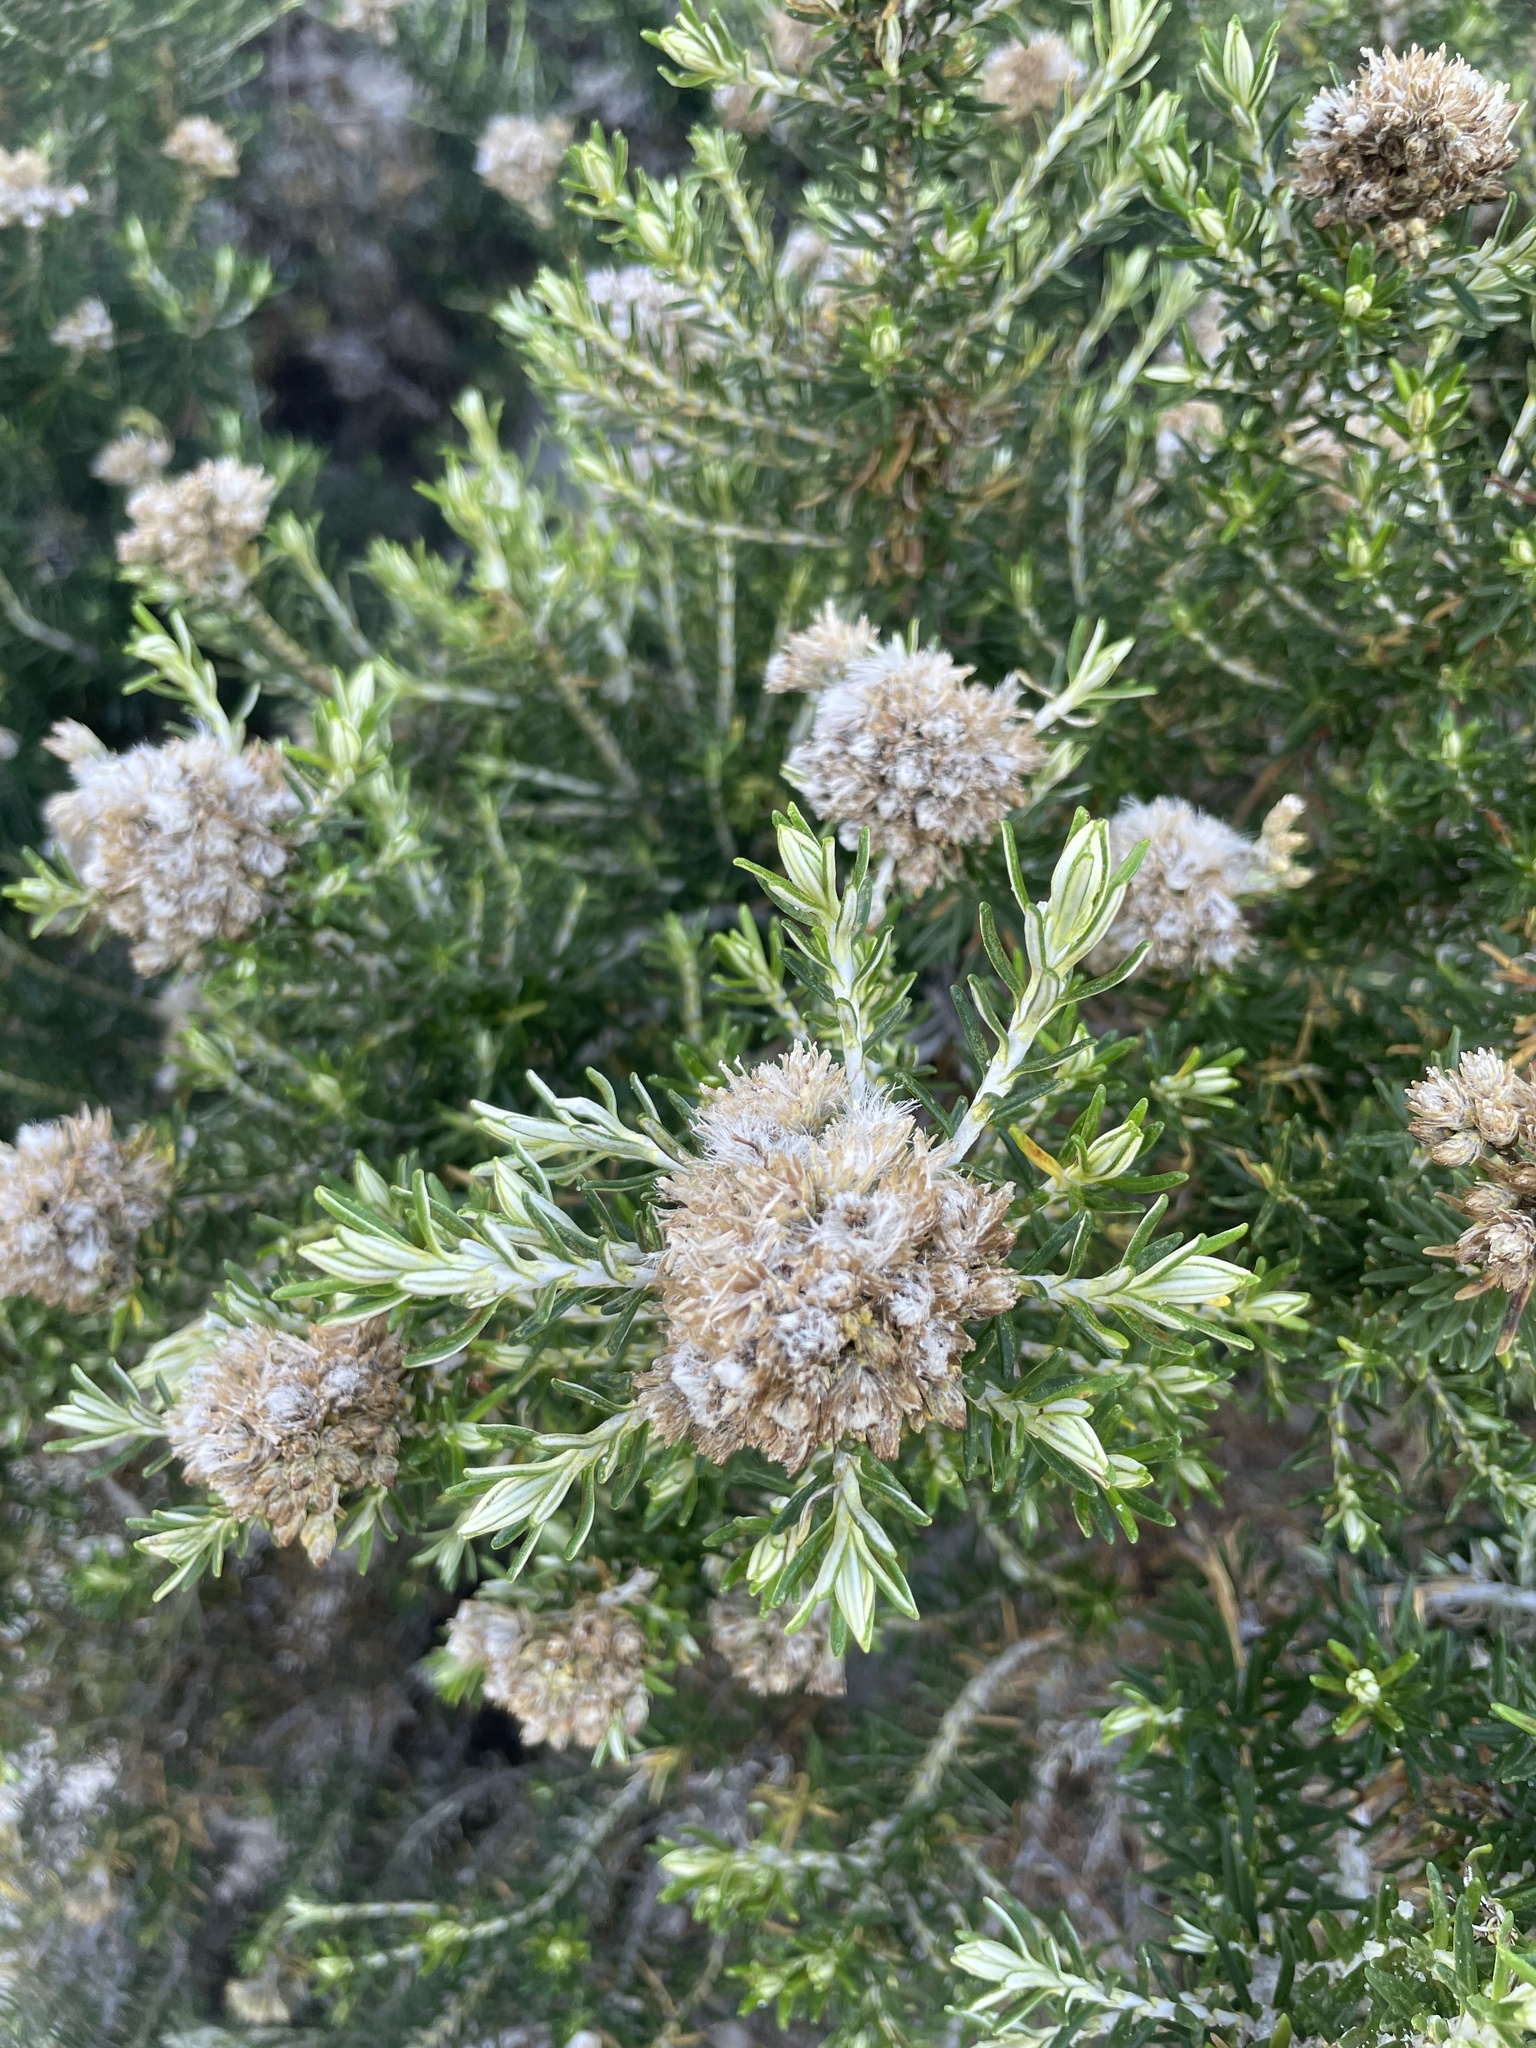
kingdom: Plantae
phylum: Tracheophyta
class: Magnoliopsida
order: Asterales
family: Asteraceae
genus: Ozothamnus
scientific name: Ozothamnus cinereus
